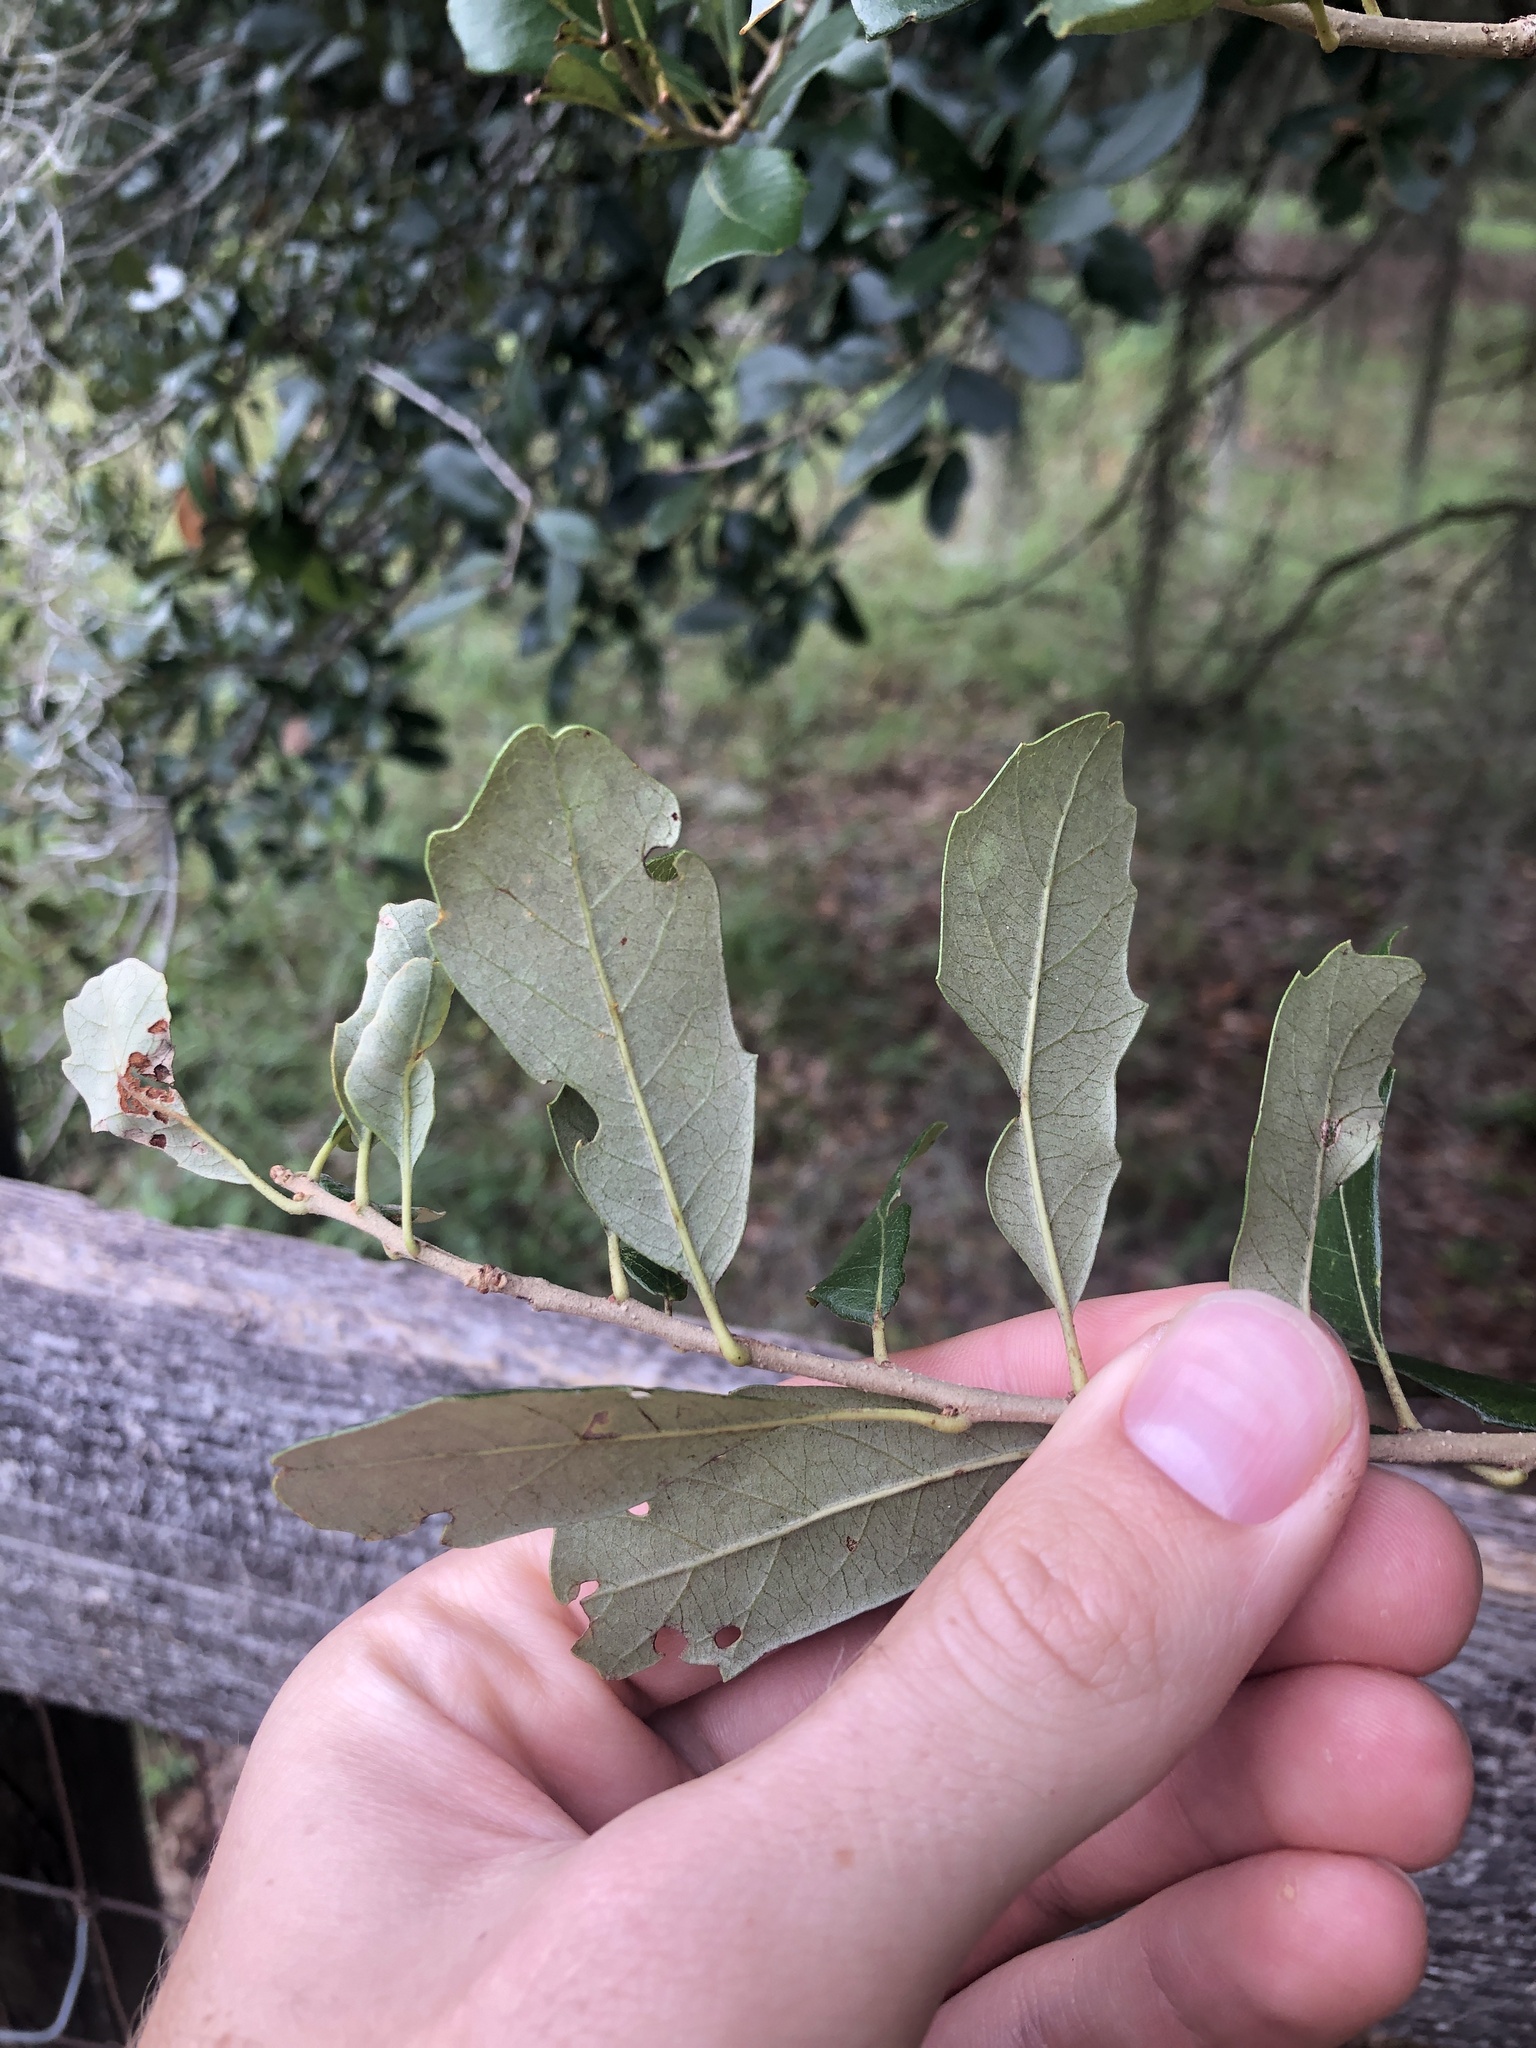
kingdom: Plantae
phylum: Tracheophyta
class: Magnoliopsida
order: Fagales
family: Fagaceae
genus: Quercus
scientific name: Quercus virginiana
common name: Southern live oak
